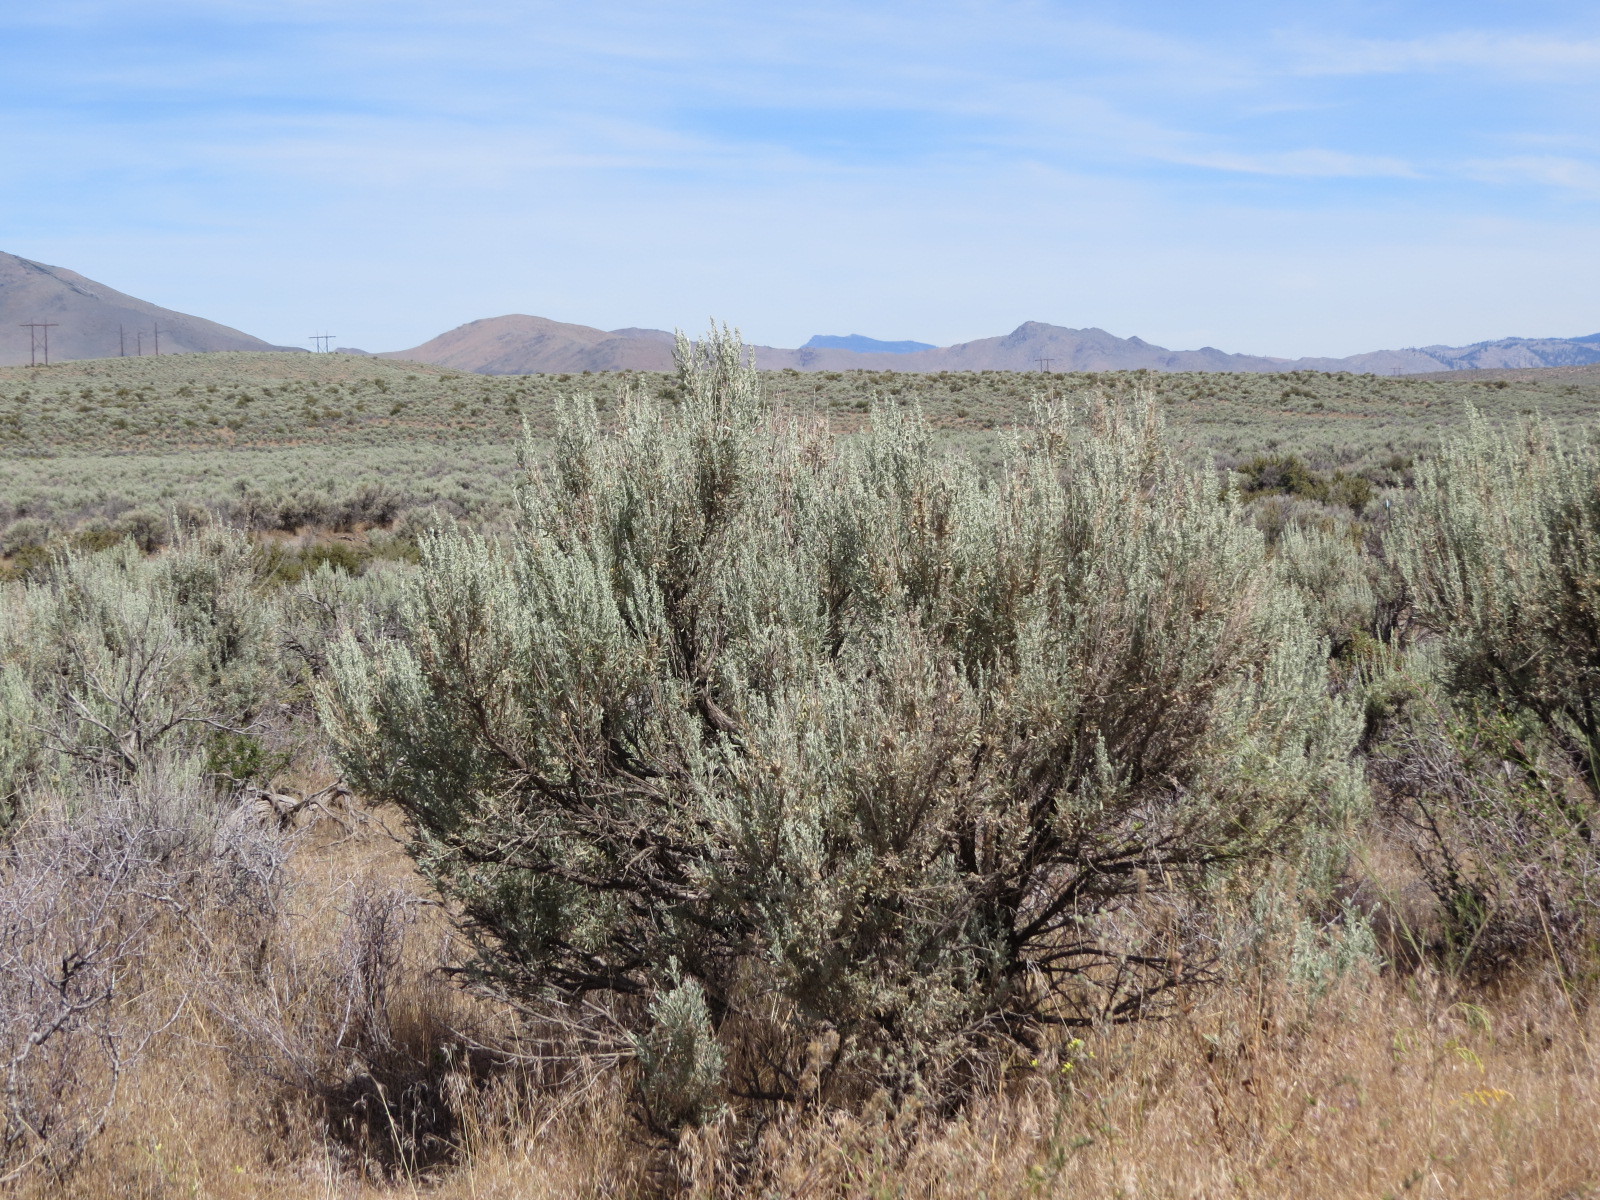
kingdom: Plantae
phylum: Tracheophyta
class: Magnoliopsida
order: Asterales
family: Asteraceae
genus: Artemisia
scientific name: Artemisia tridentata
